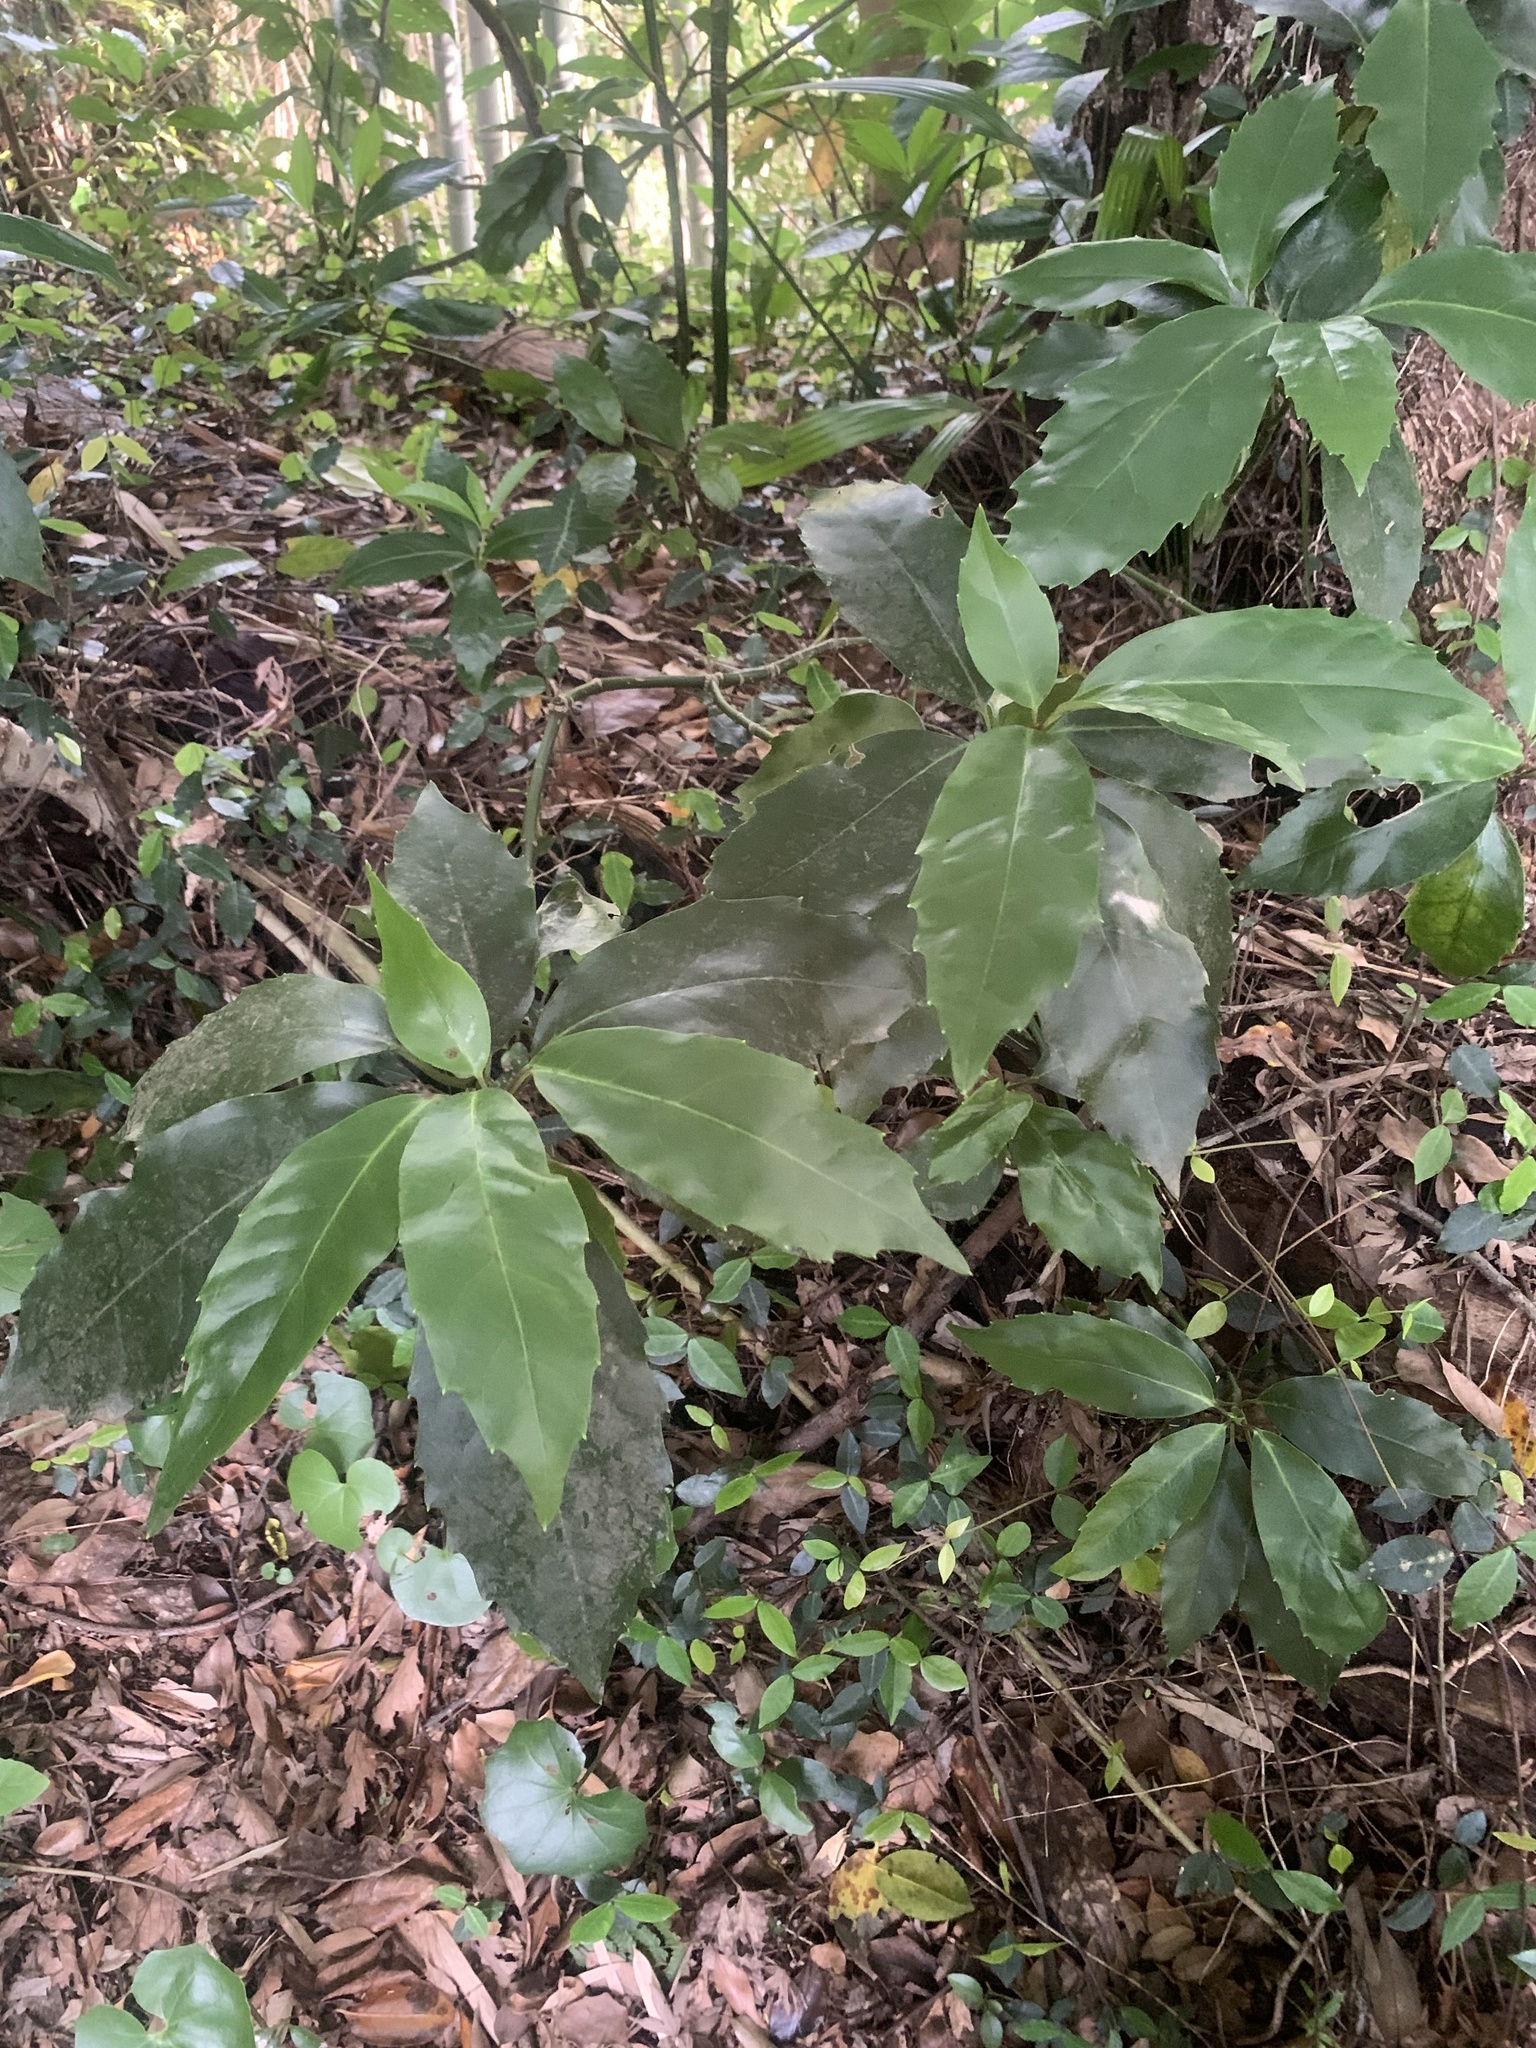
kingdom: Plantae
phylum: Tracheophyta
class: Magnoliopsida
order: Garryales
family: Garryaceae
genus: Aucuba
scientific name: Aucuba japonica
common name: Spotted-laurel
